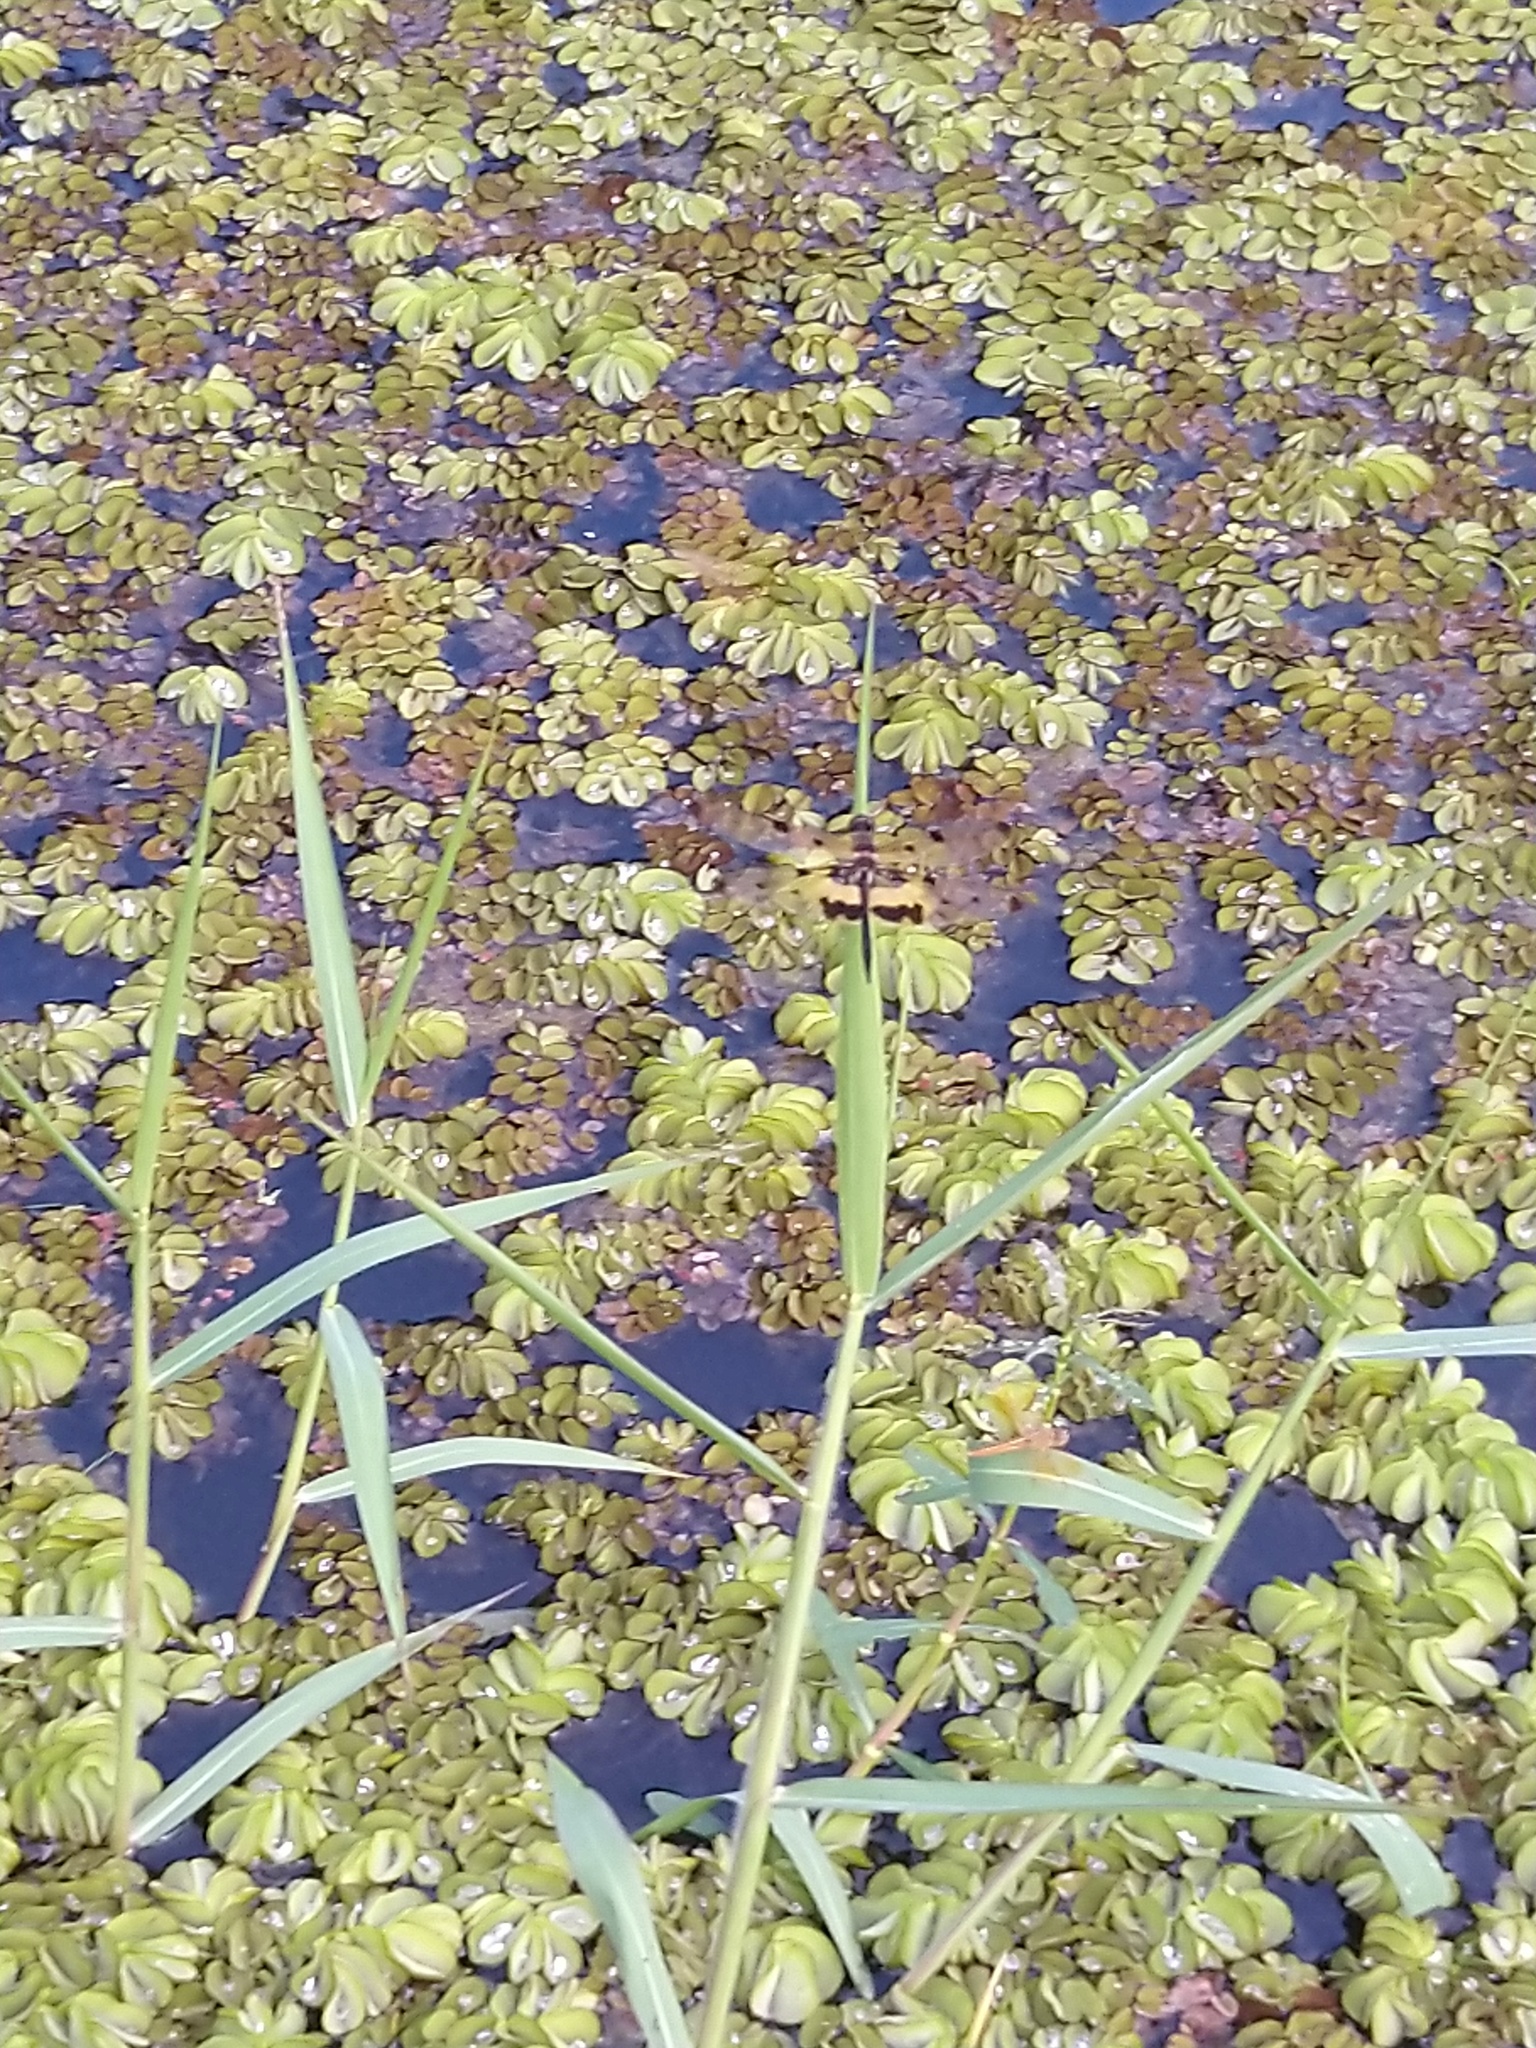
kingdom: Animalia
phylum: Arthropoda
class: Insecta
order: Odonata
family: Libellulidae
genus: Rhyothemis
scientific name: Rhyothemis variegata
